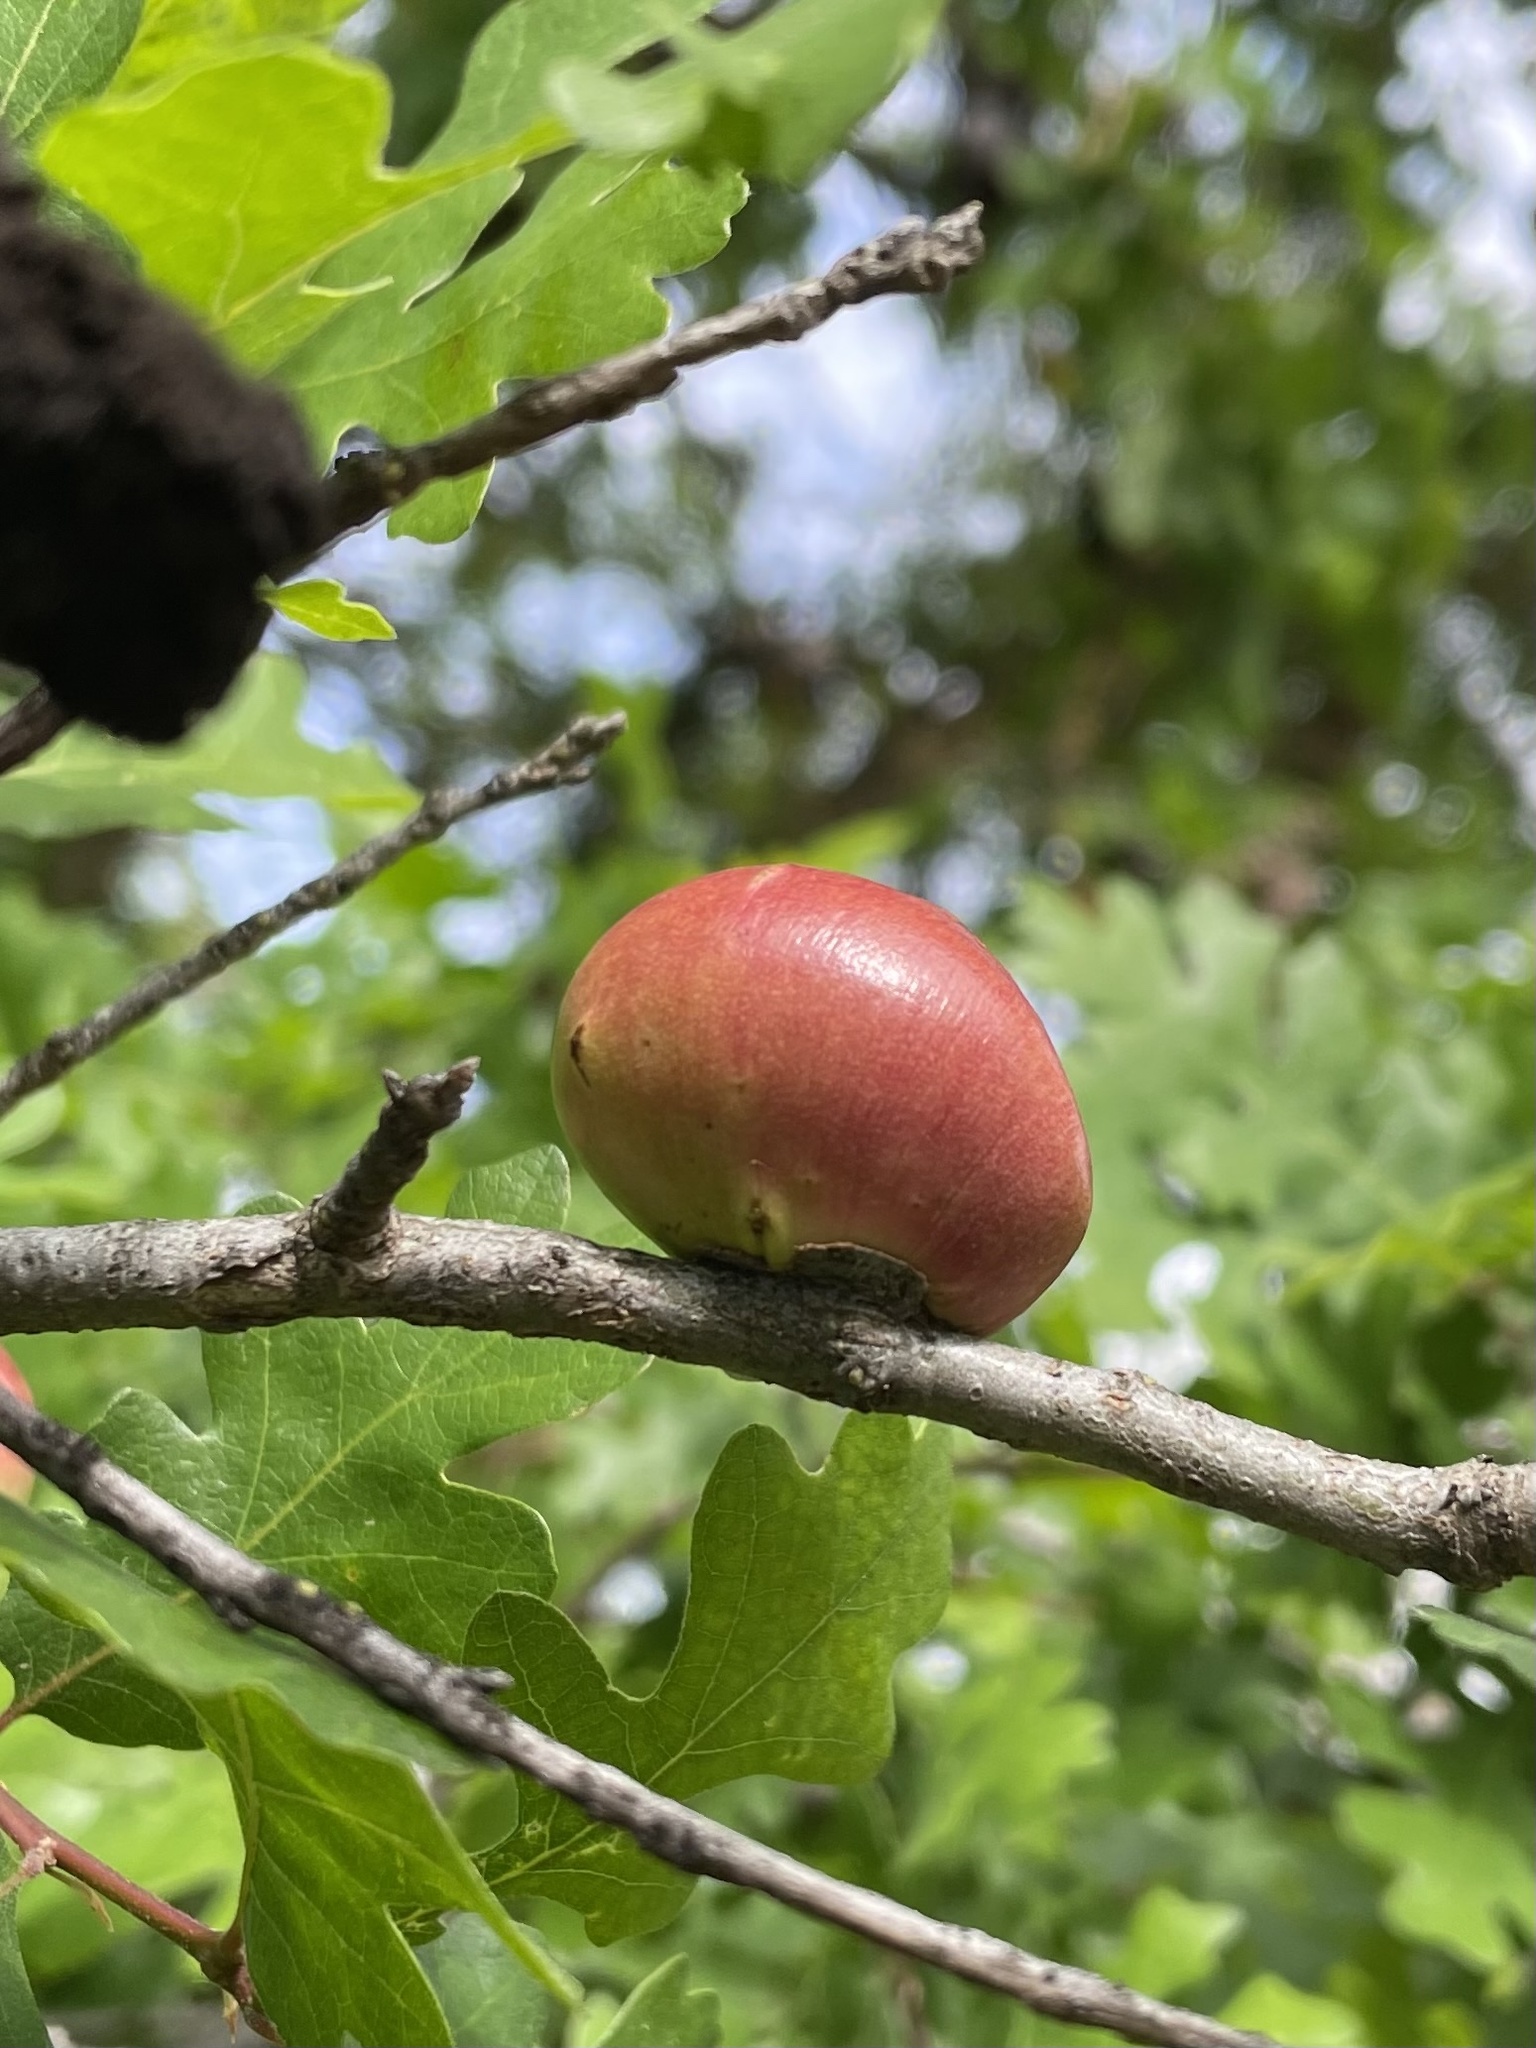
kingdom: Animalia
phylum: Arthropoda
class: Insecta
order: Hymenoptera
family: Cynipidae
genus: Andricus
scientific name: Andricus quercuscalifornicus
